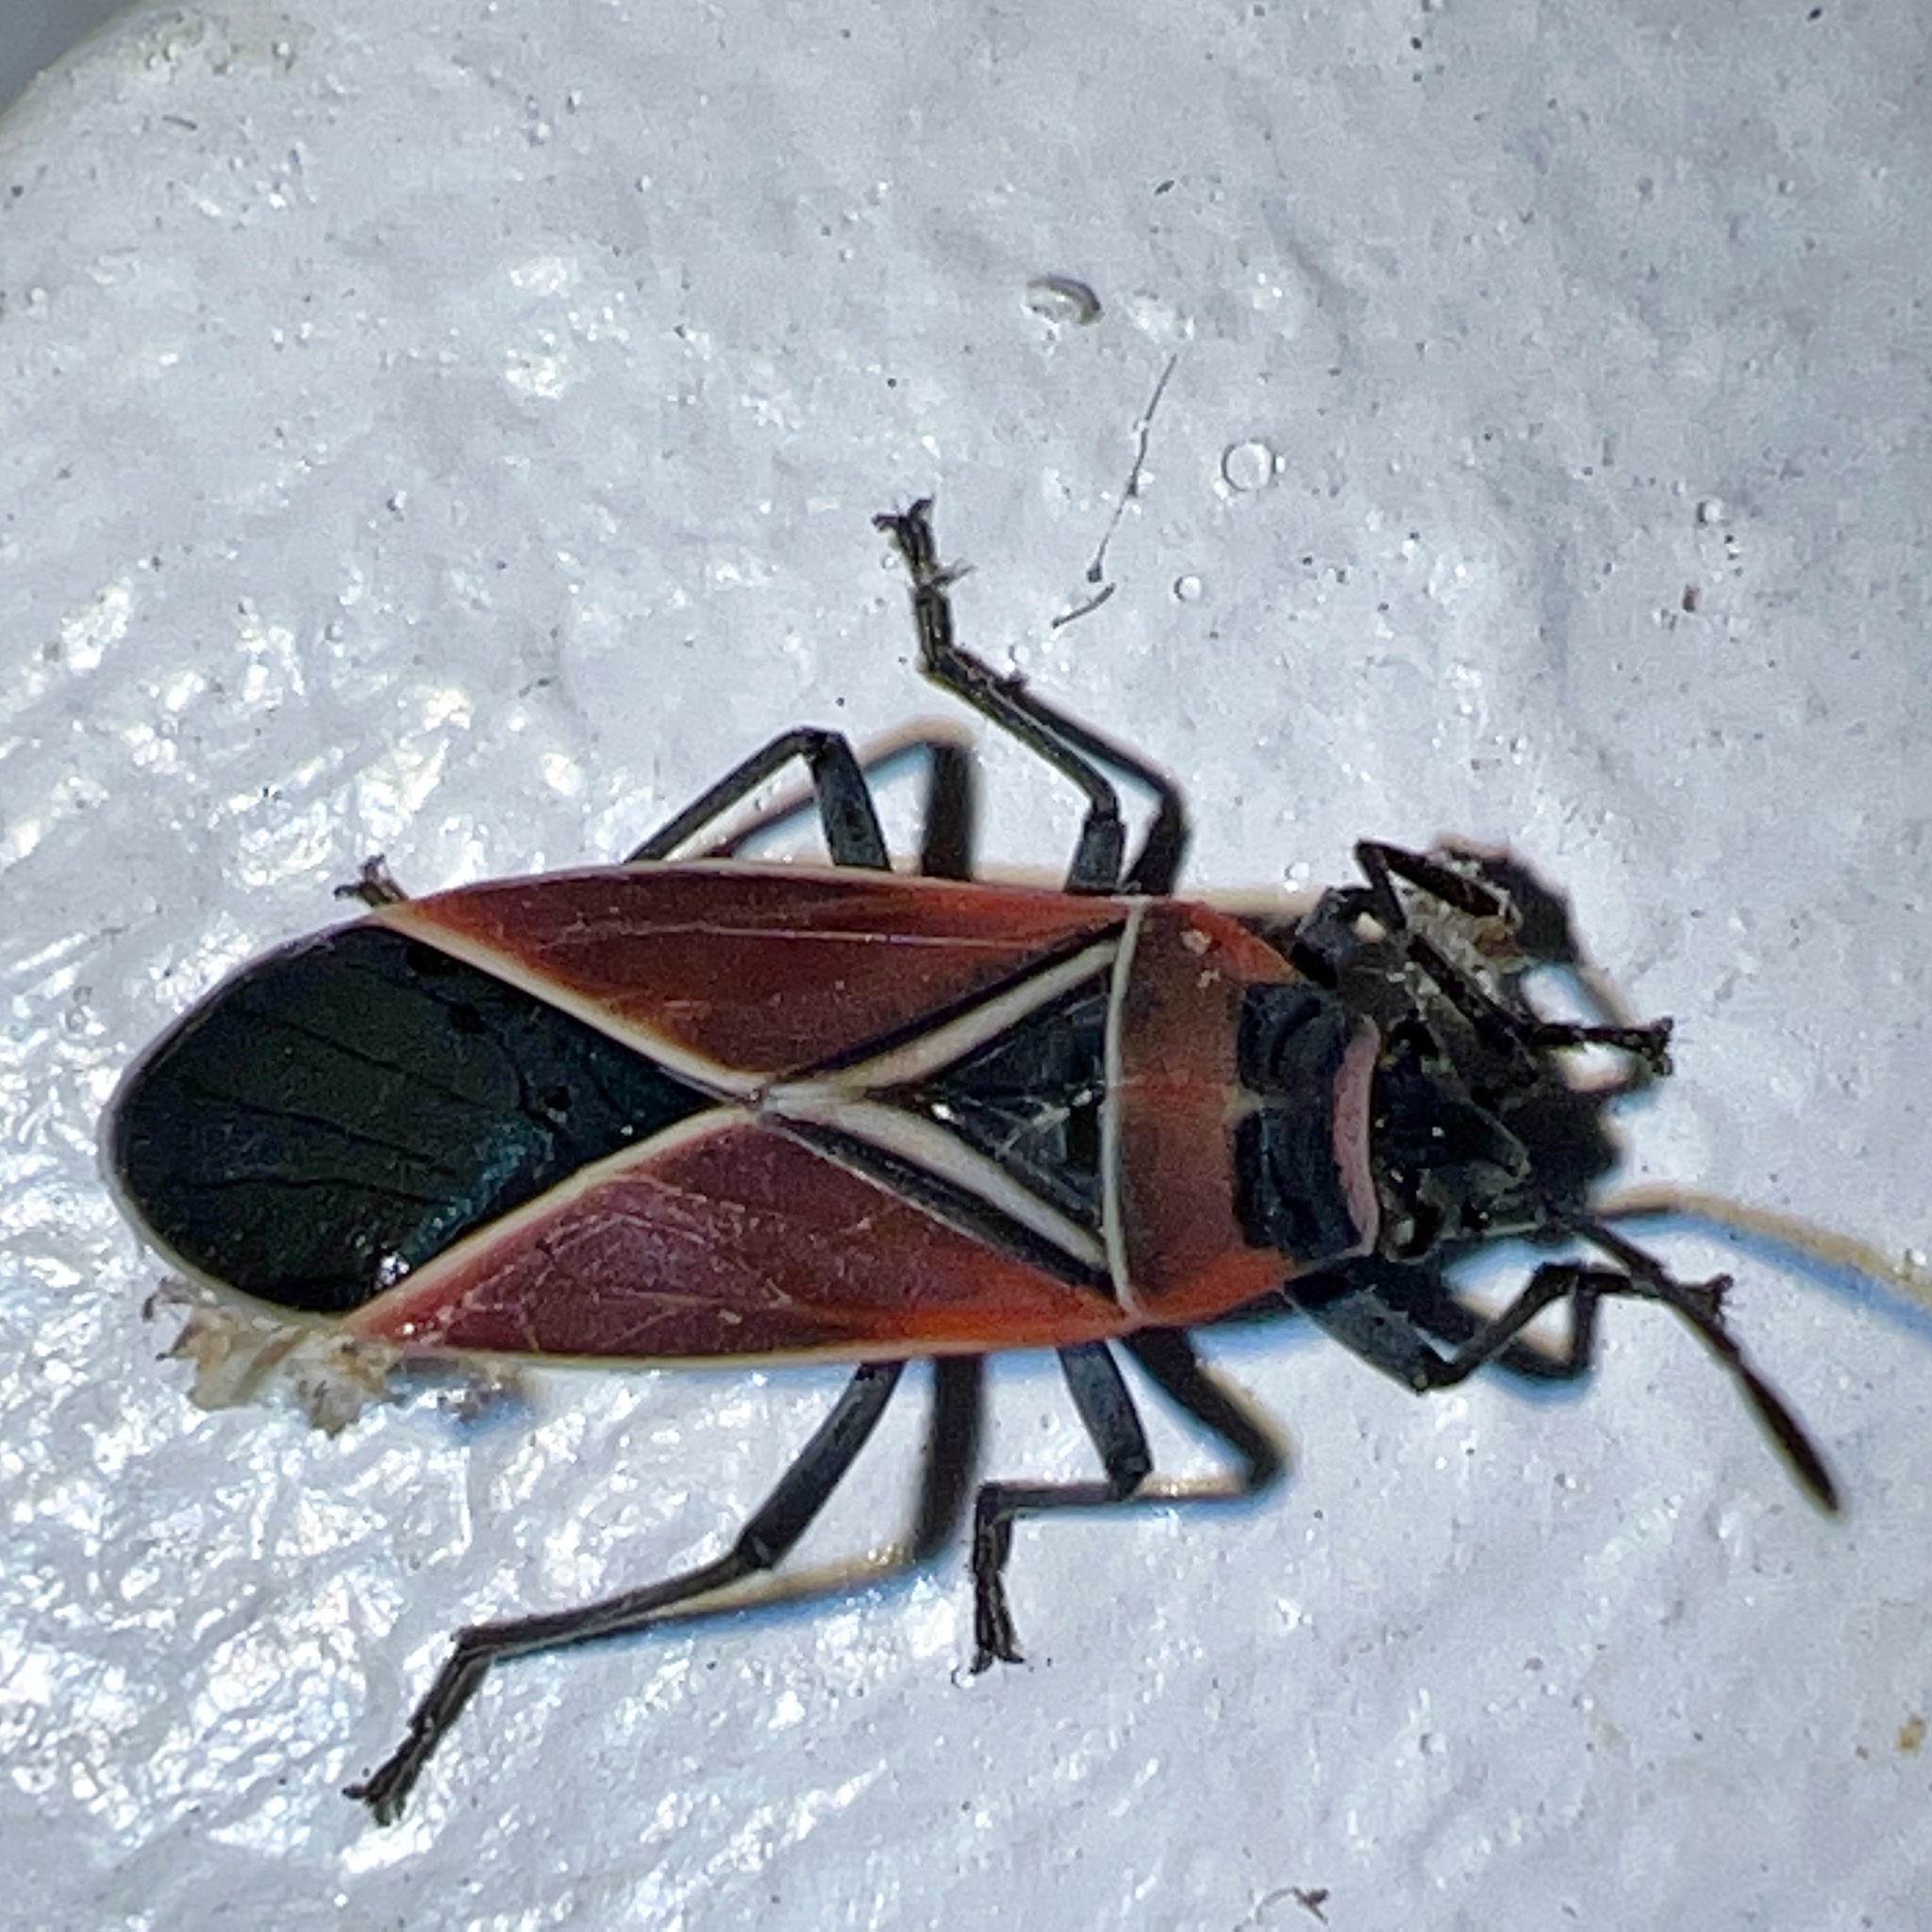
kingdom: Animalia
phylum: Arthropoda
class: Insecta
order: Hemiptera
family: Lygaeidae
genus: Neacoryphus
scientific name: Neacoryphus bicrucis
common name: Lygaeid bug
